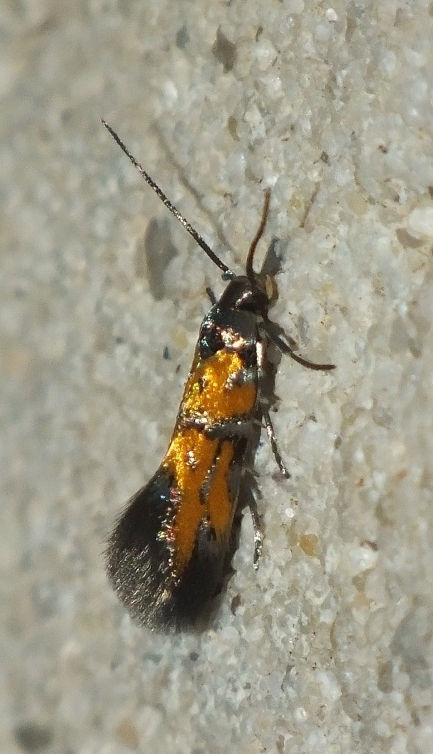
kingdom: Animalia
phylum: Arthropoda
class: Insecta
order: Lepidoptera
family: Gelechiidae
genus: Chrysoesthia
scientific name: Chrysoesthia drurella
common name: Flame neb
